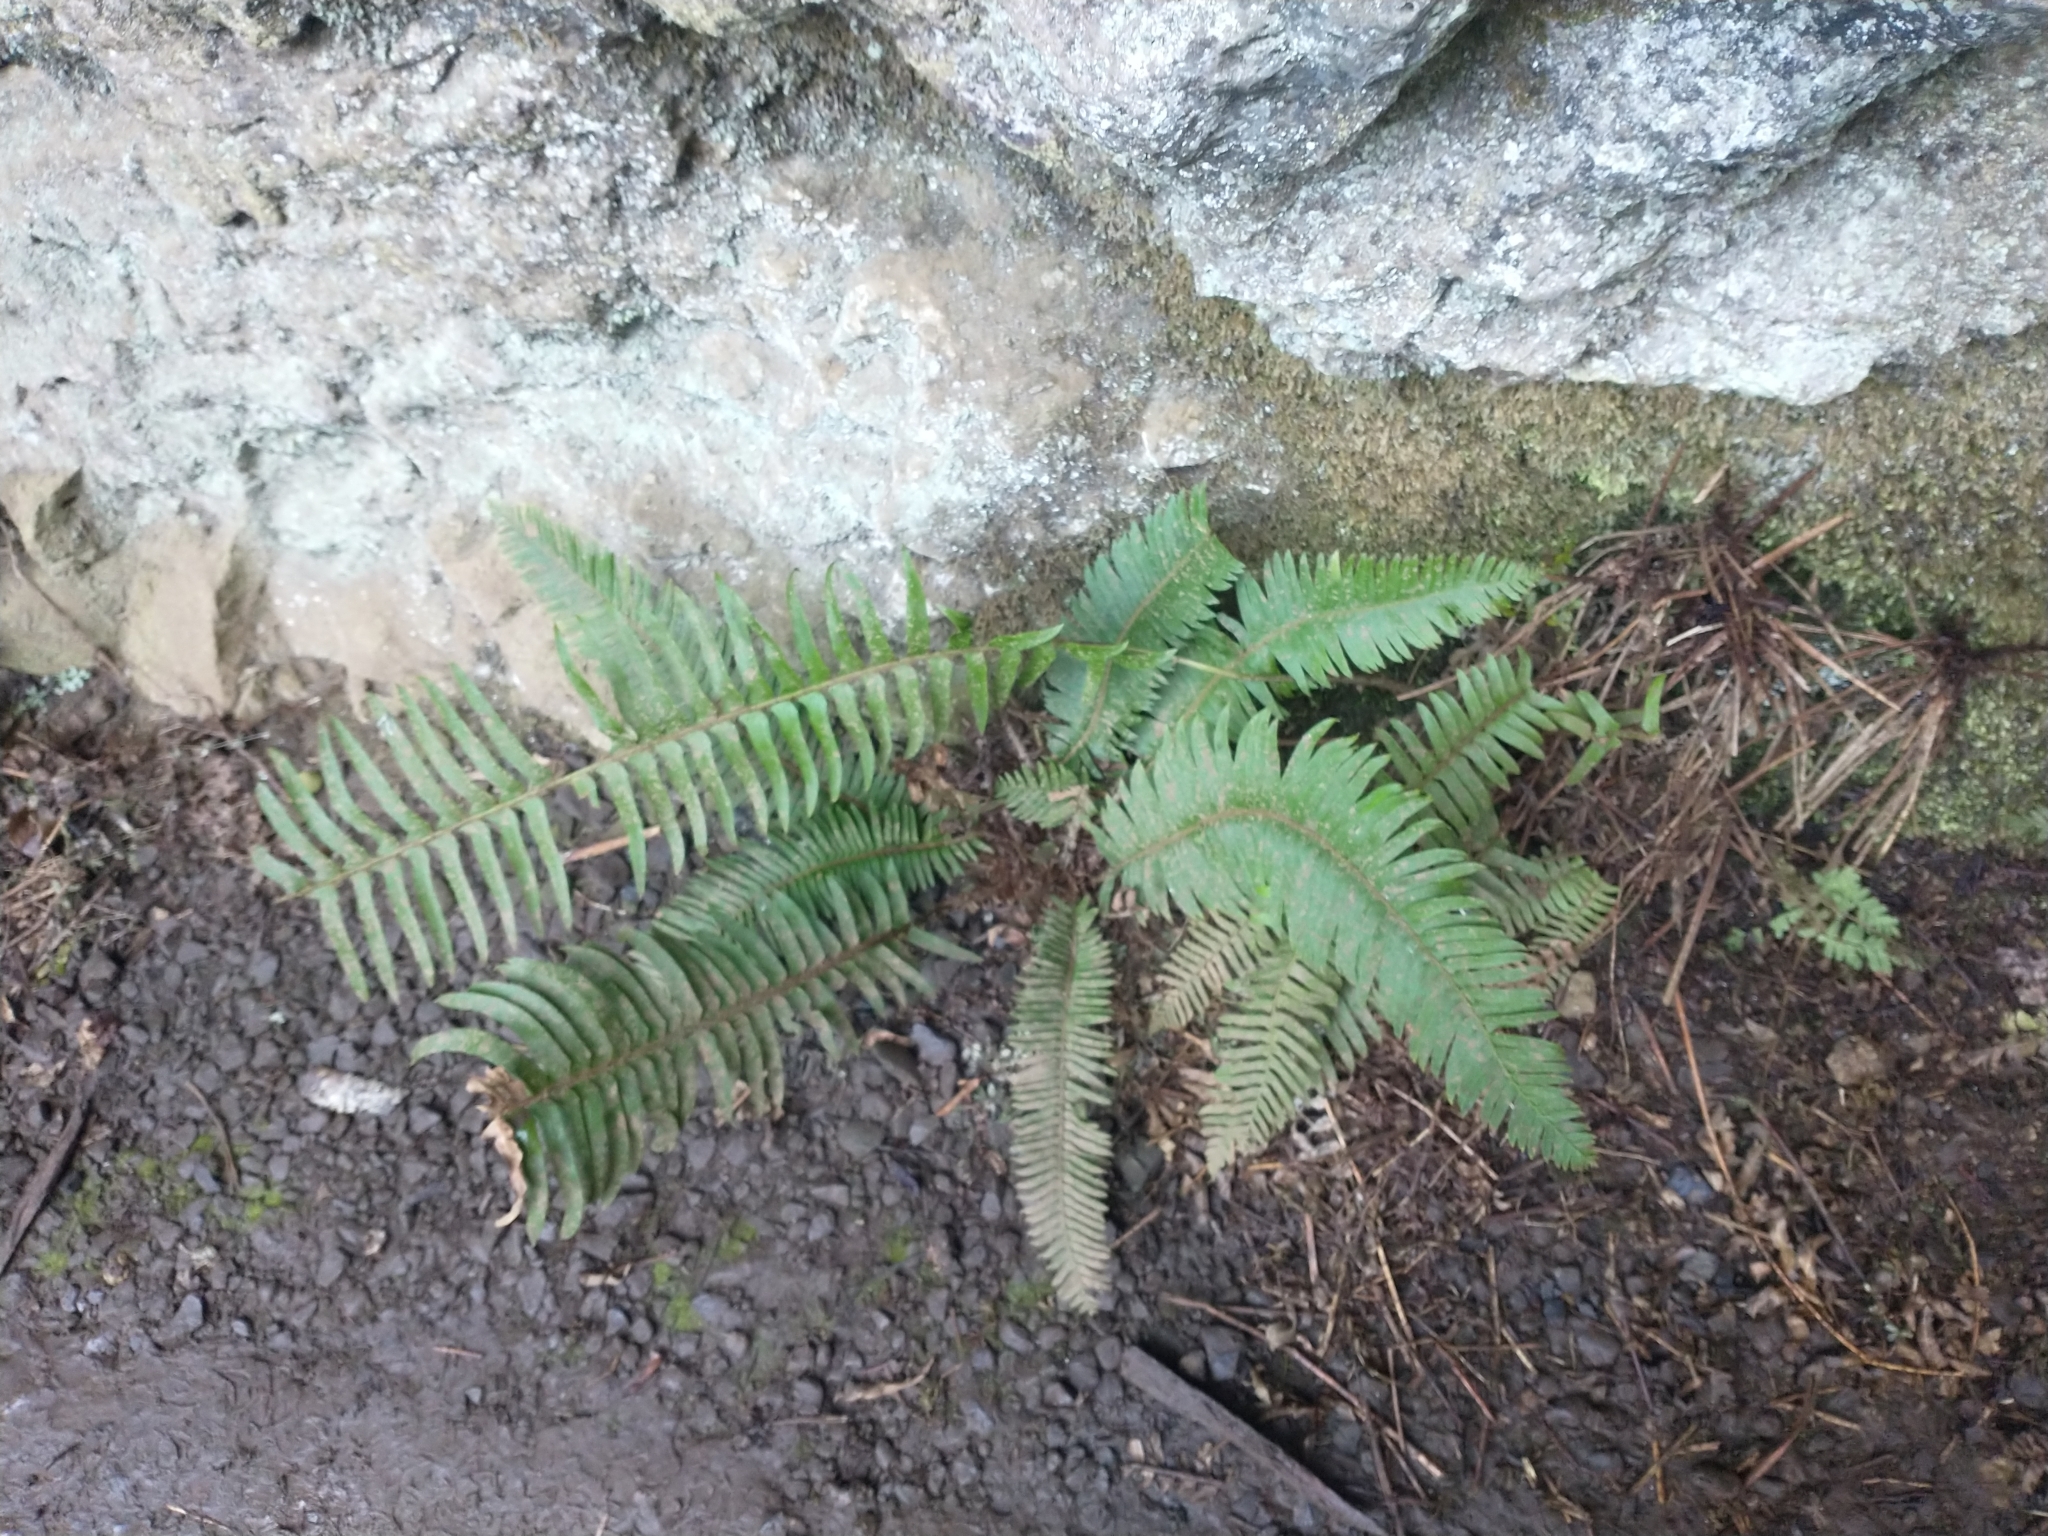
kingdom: Plantae
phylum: Tracheophyta
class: Polypodiopsida
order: Polypodiales
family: Dryopteridaceae
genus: Polystichum
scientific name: Polystichum munitum
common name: Western sword-fern
